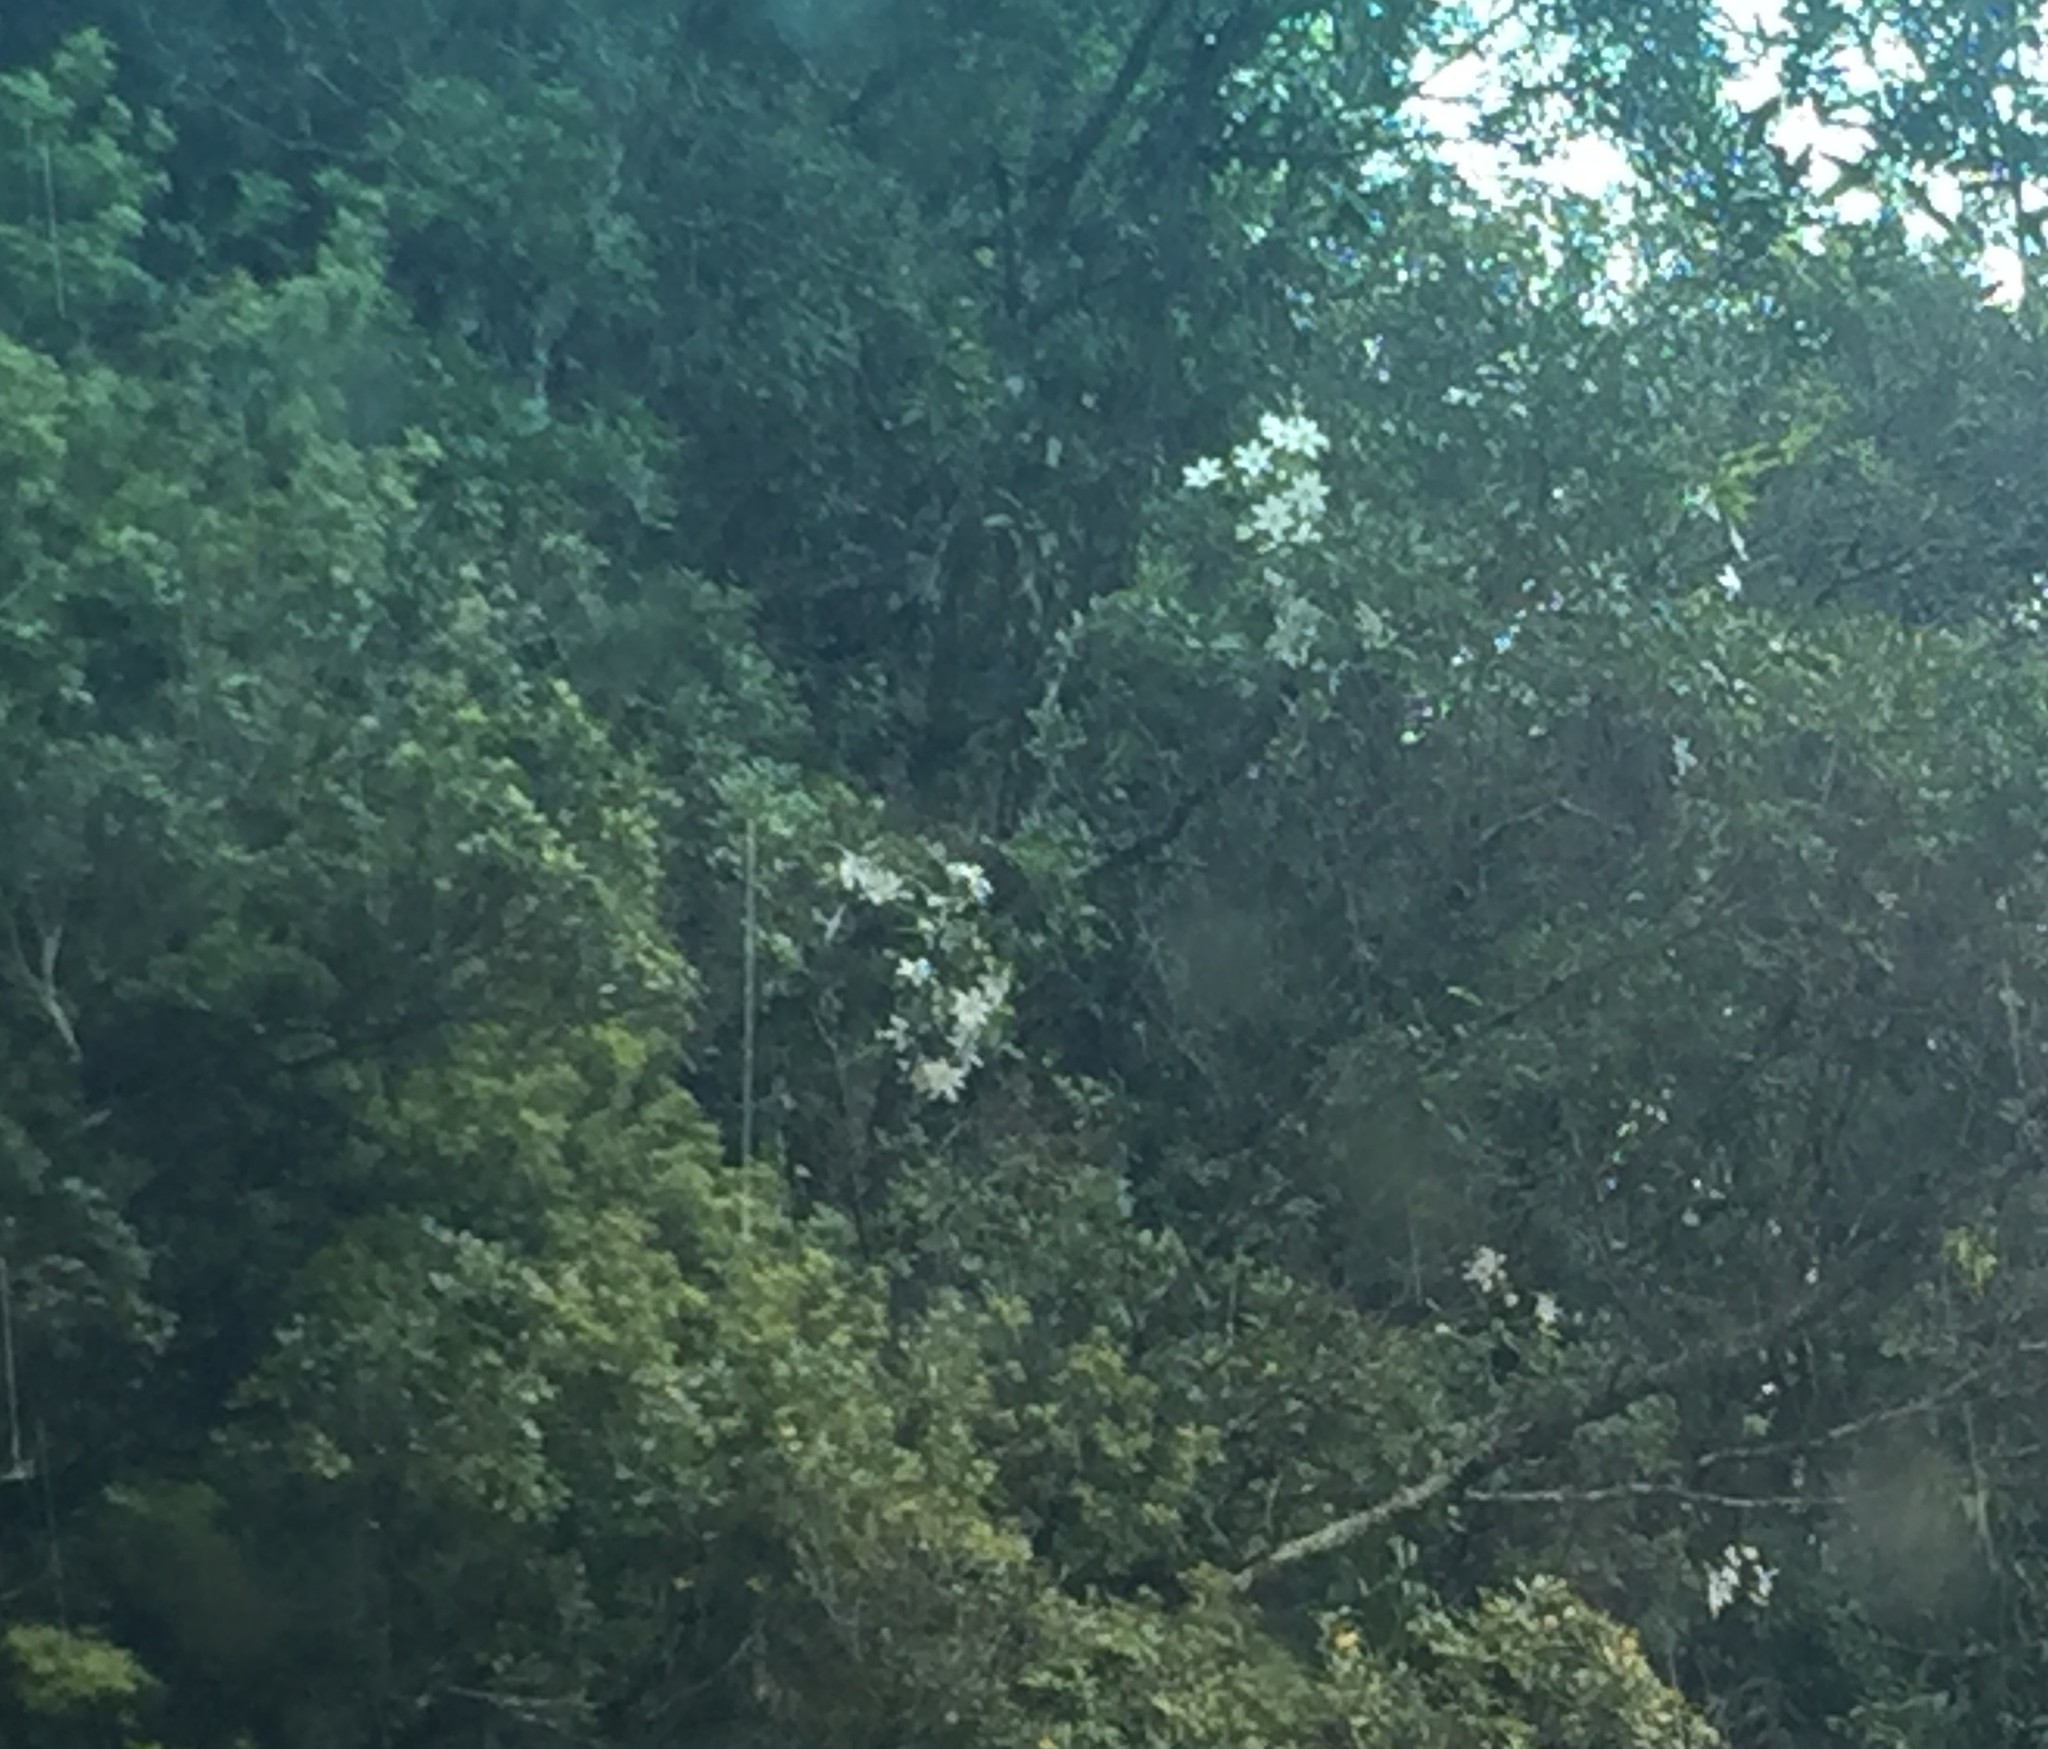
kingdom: Plantae
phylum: Tracheophyta
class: Magnoliopsida
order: Ranunculales
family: Ranunculaceae
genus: Clematis
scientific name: Clematis paniculata
